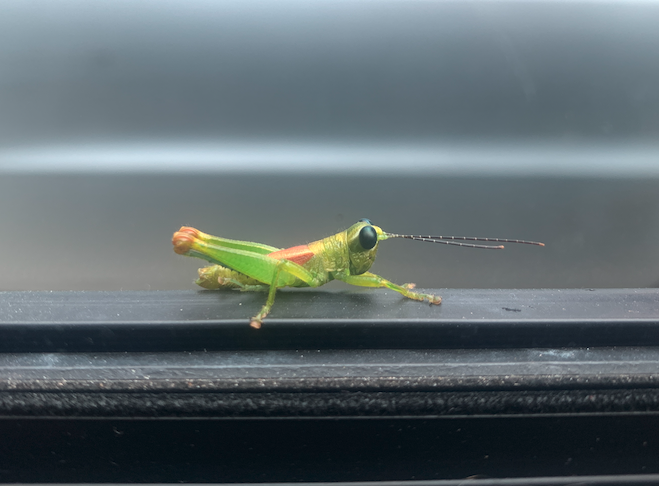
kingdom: Animalia
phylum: Arthropoda
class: Insecta
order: Orthoptera
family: Acrididae
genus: Longzhouacris
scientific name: Longzhouacris annulicornis
